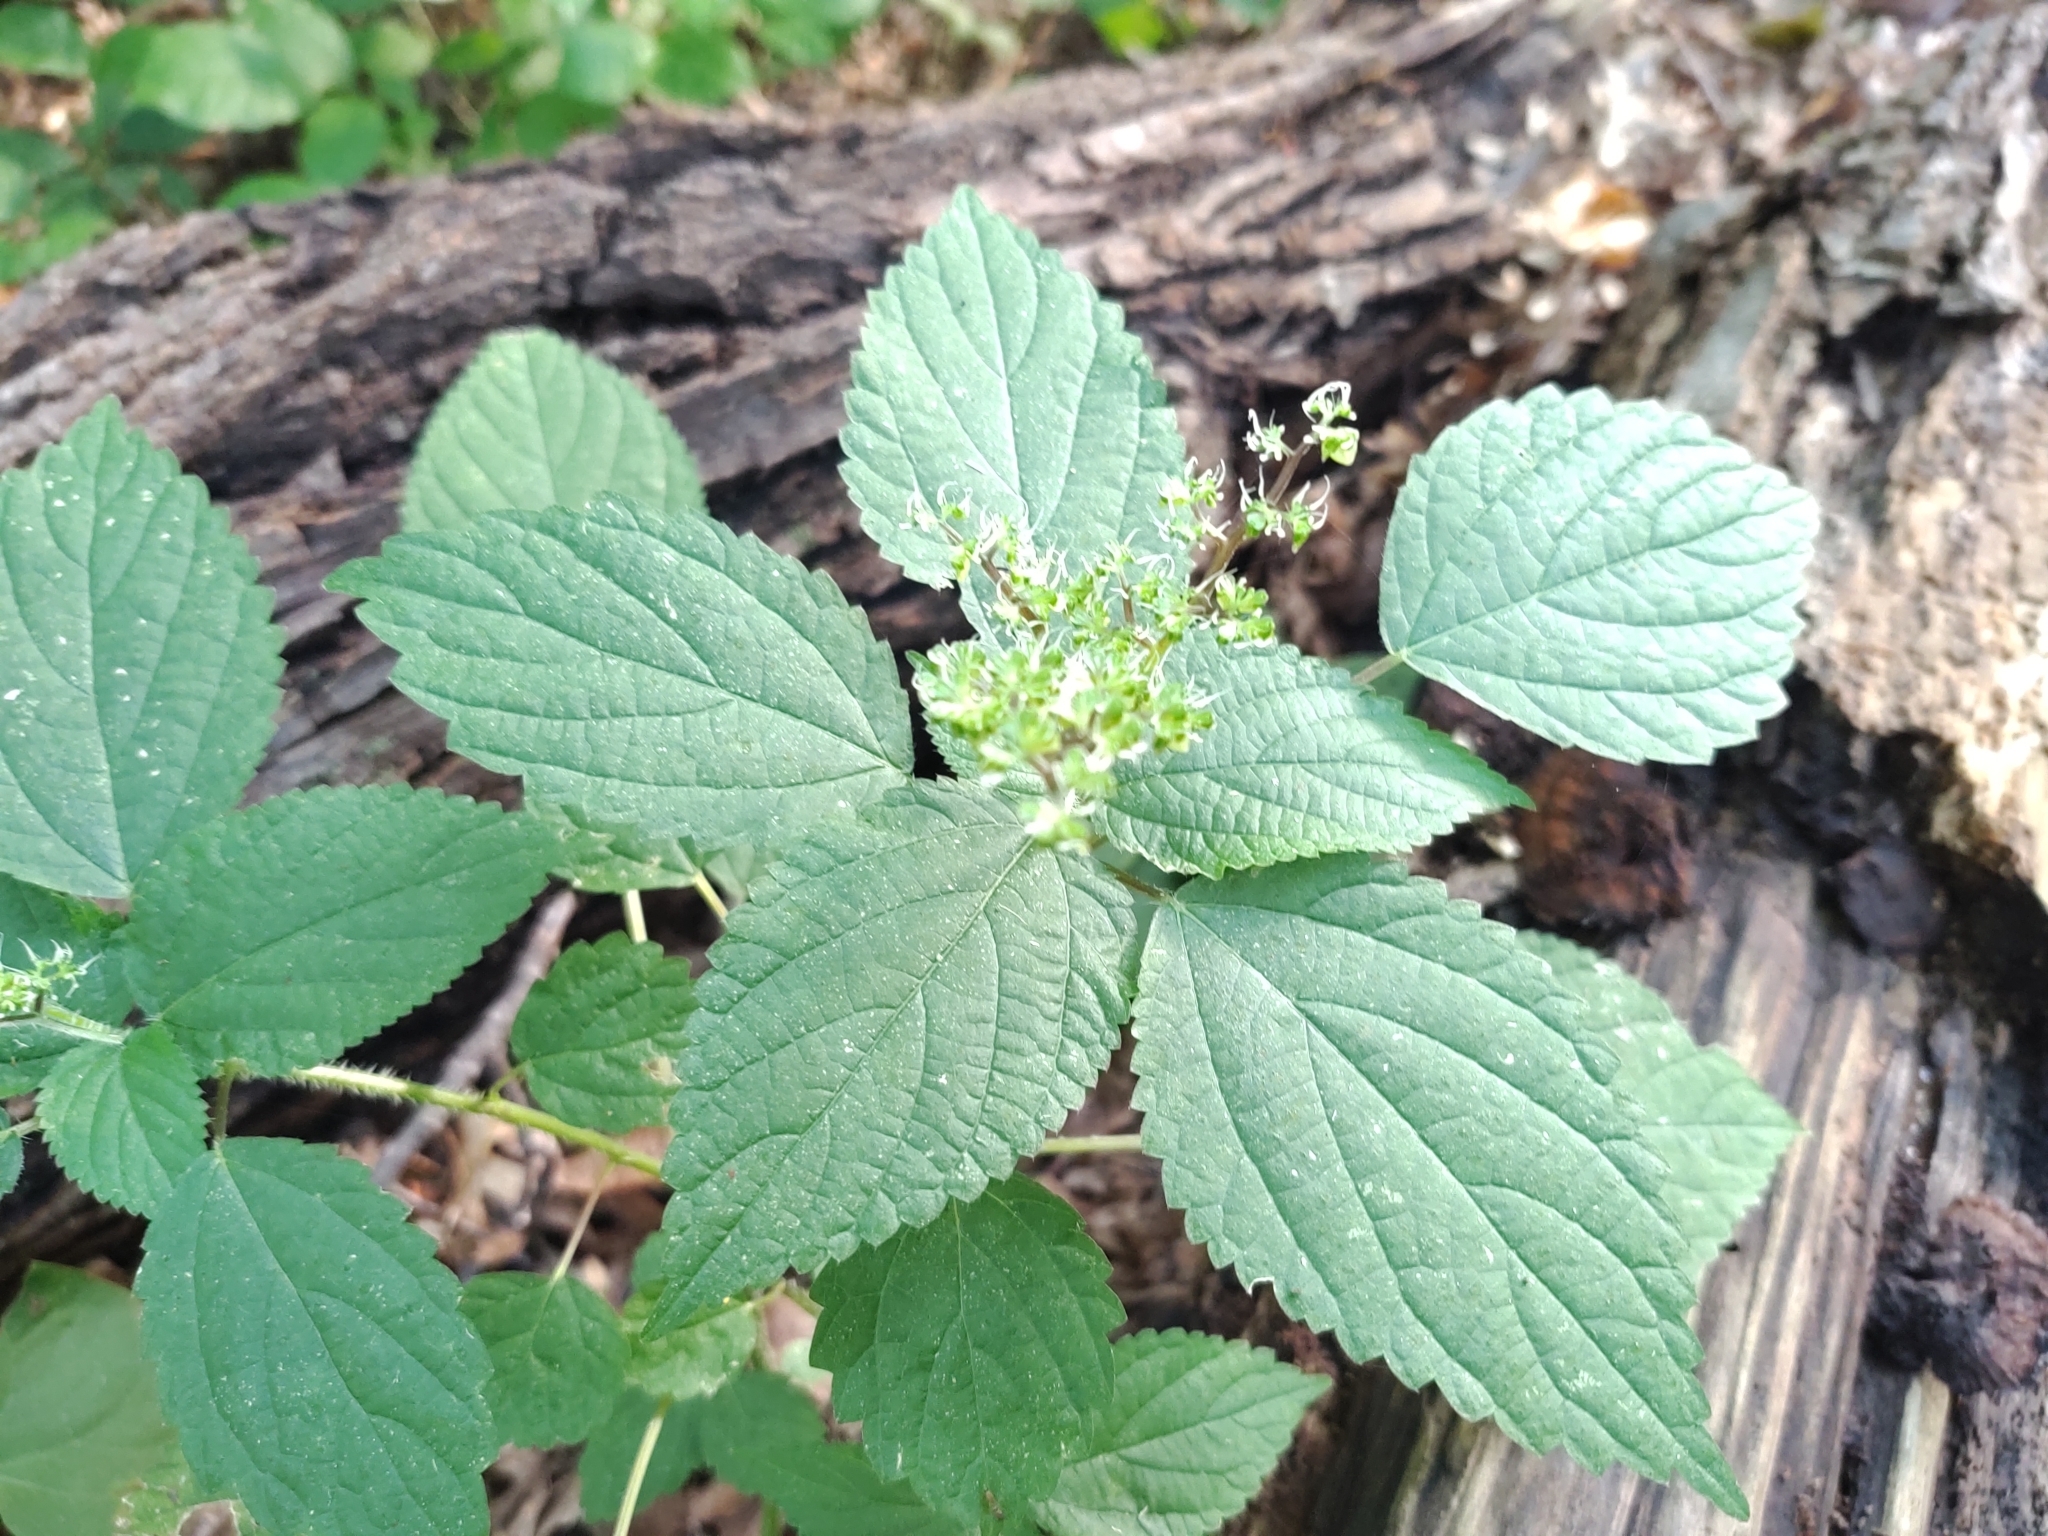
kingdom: Plantae
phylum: Tracheophyta
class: Magnoliopsida
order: Rosales
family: Urticaceae
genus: Laportea
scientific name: Laportea canadensis
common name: Canada nettle
